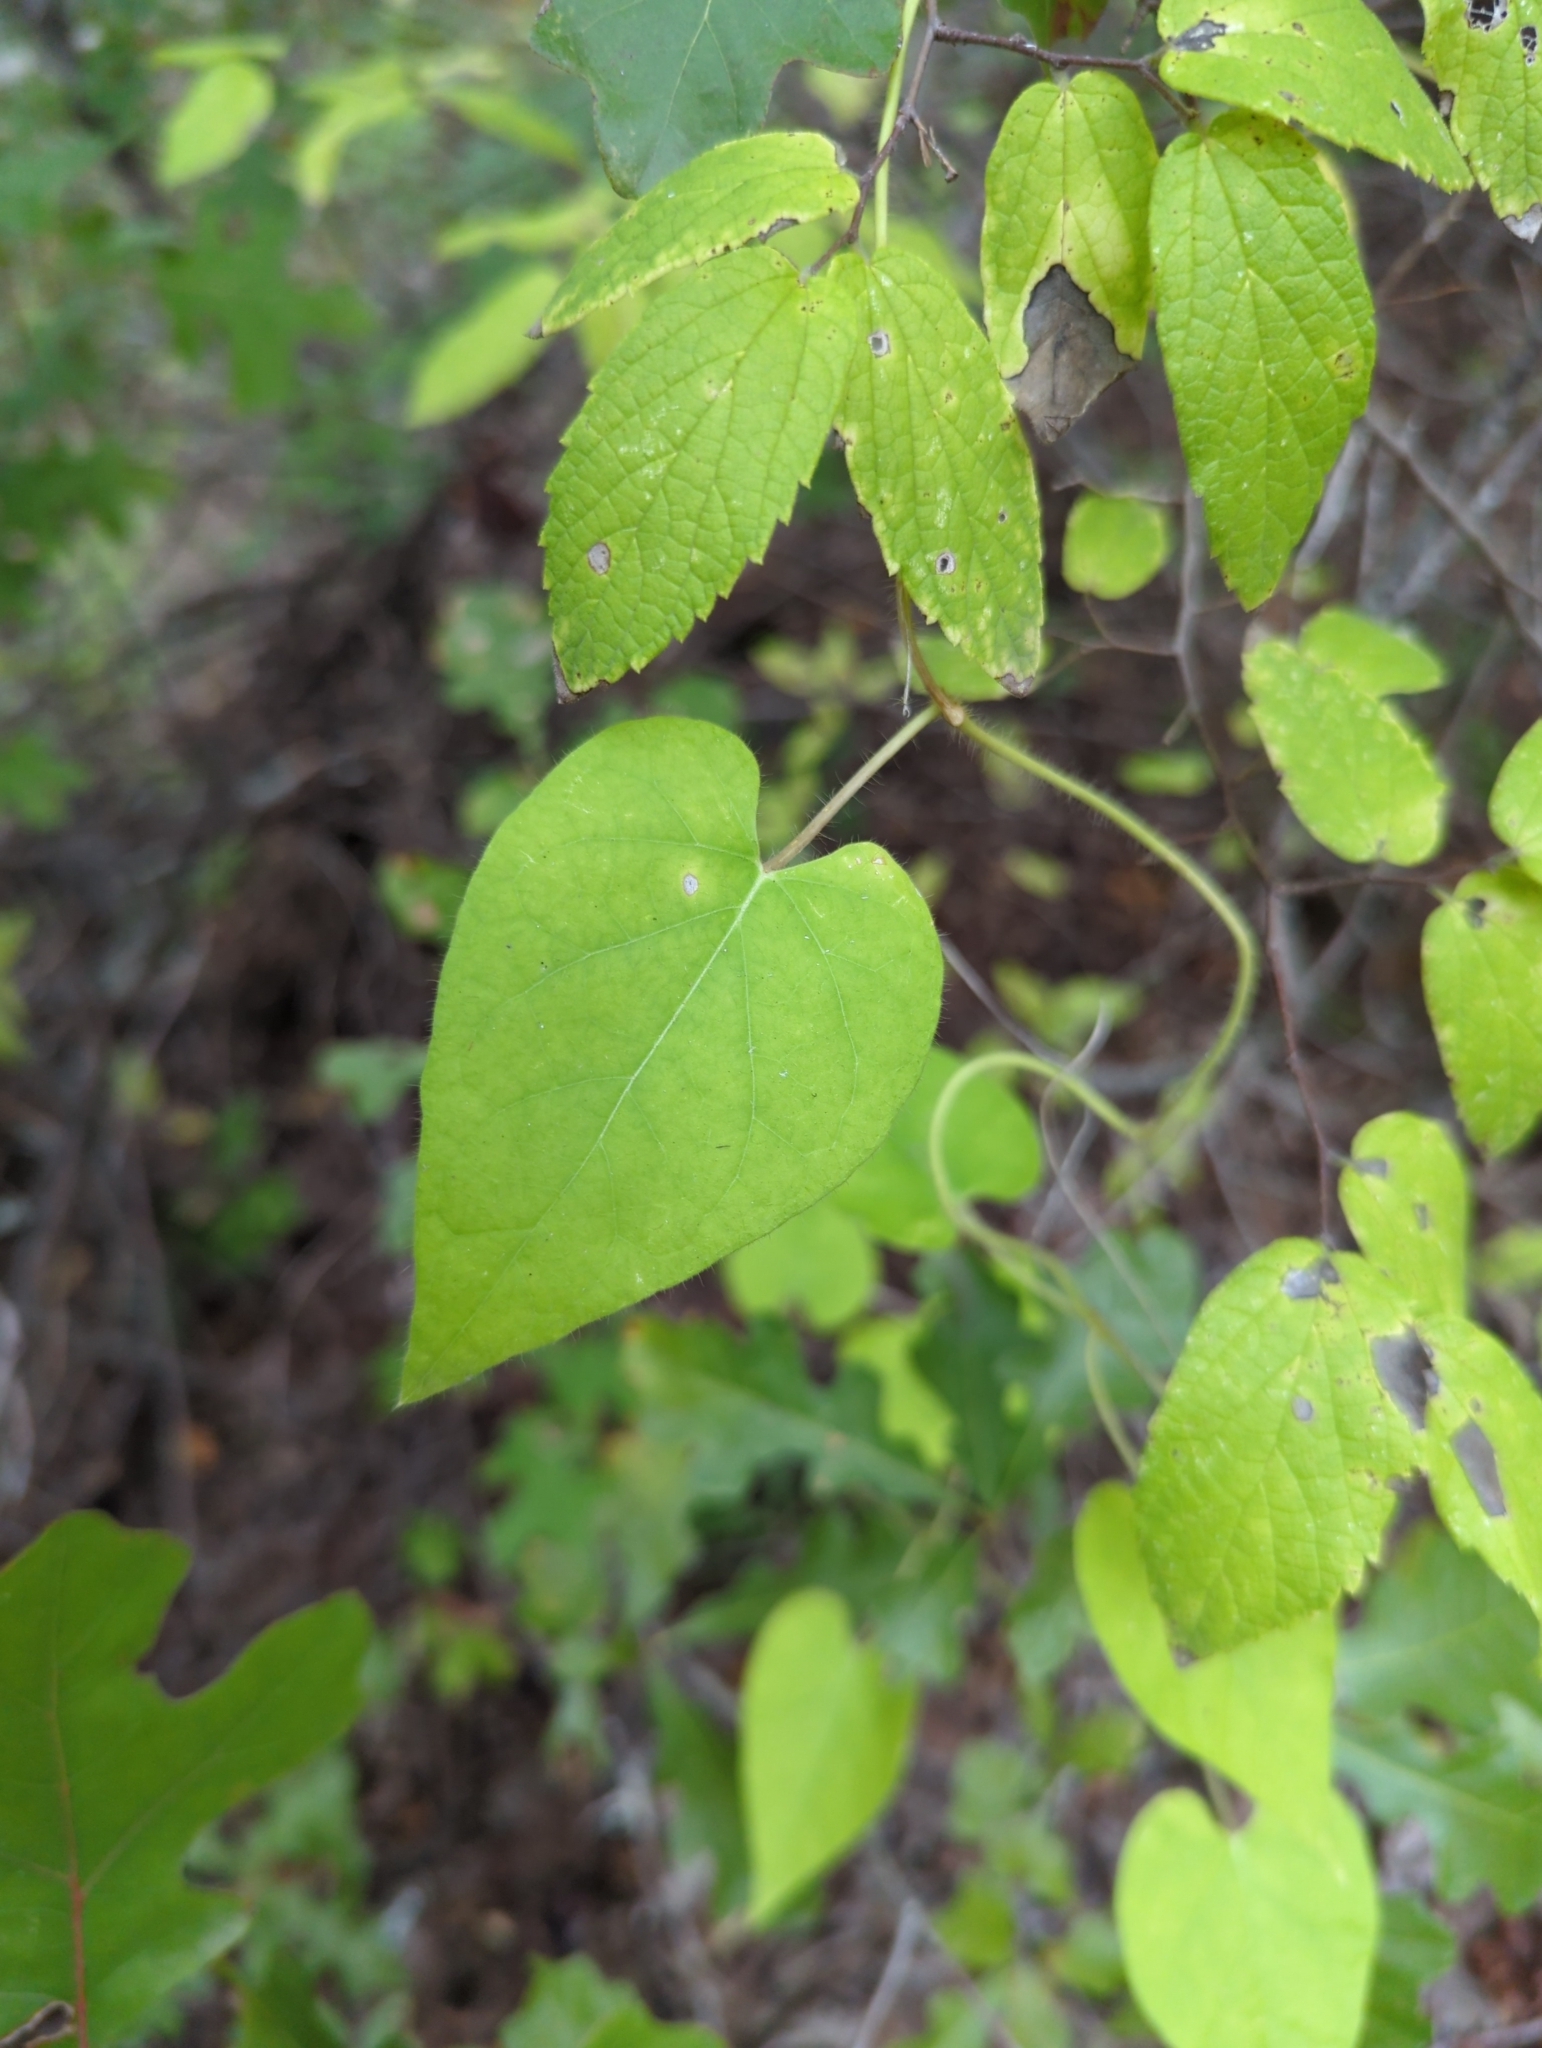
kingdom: Plantae
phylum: Tracheophyta
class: Magnoliopsida
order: Gentianales
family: Apocynaceae
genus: Dictyanthus
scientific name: Dictyanthus reticulatus
